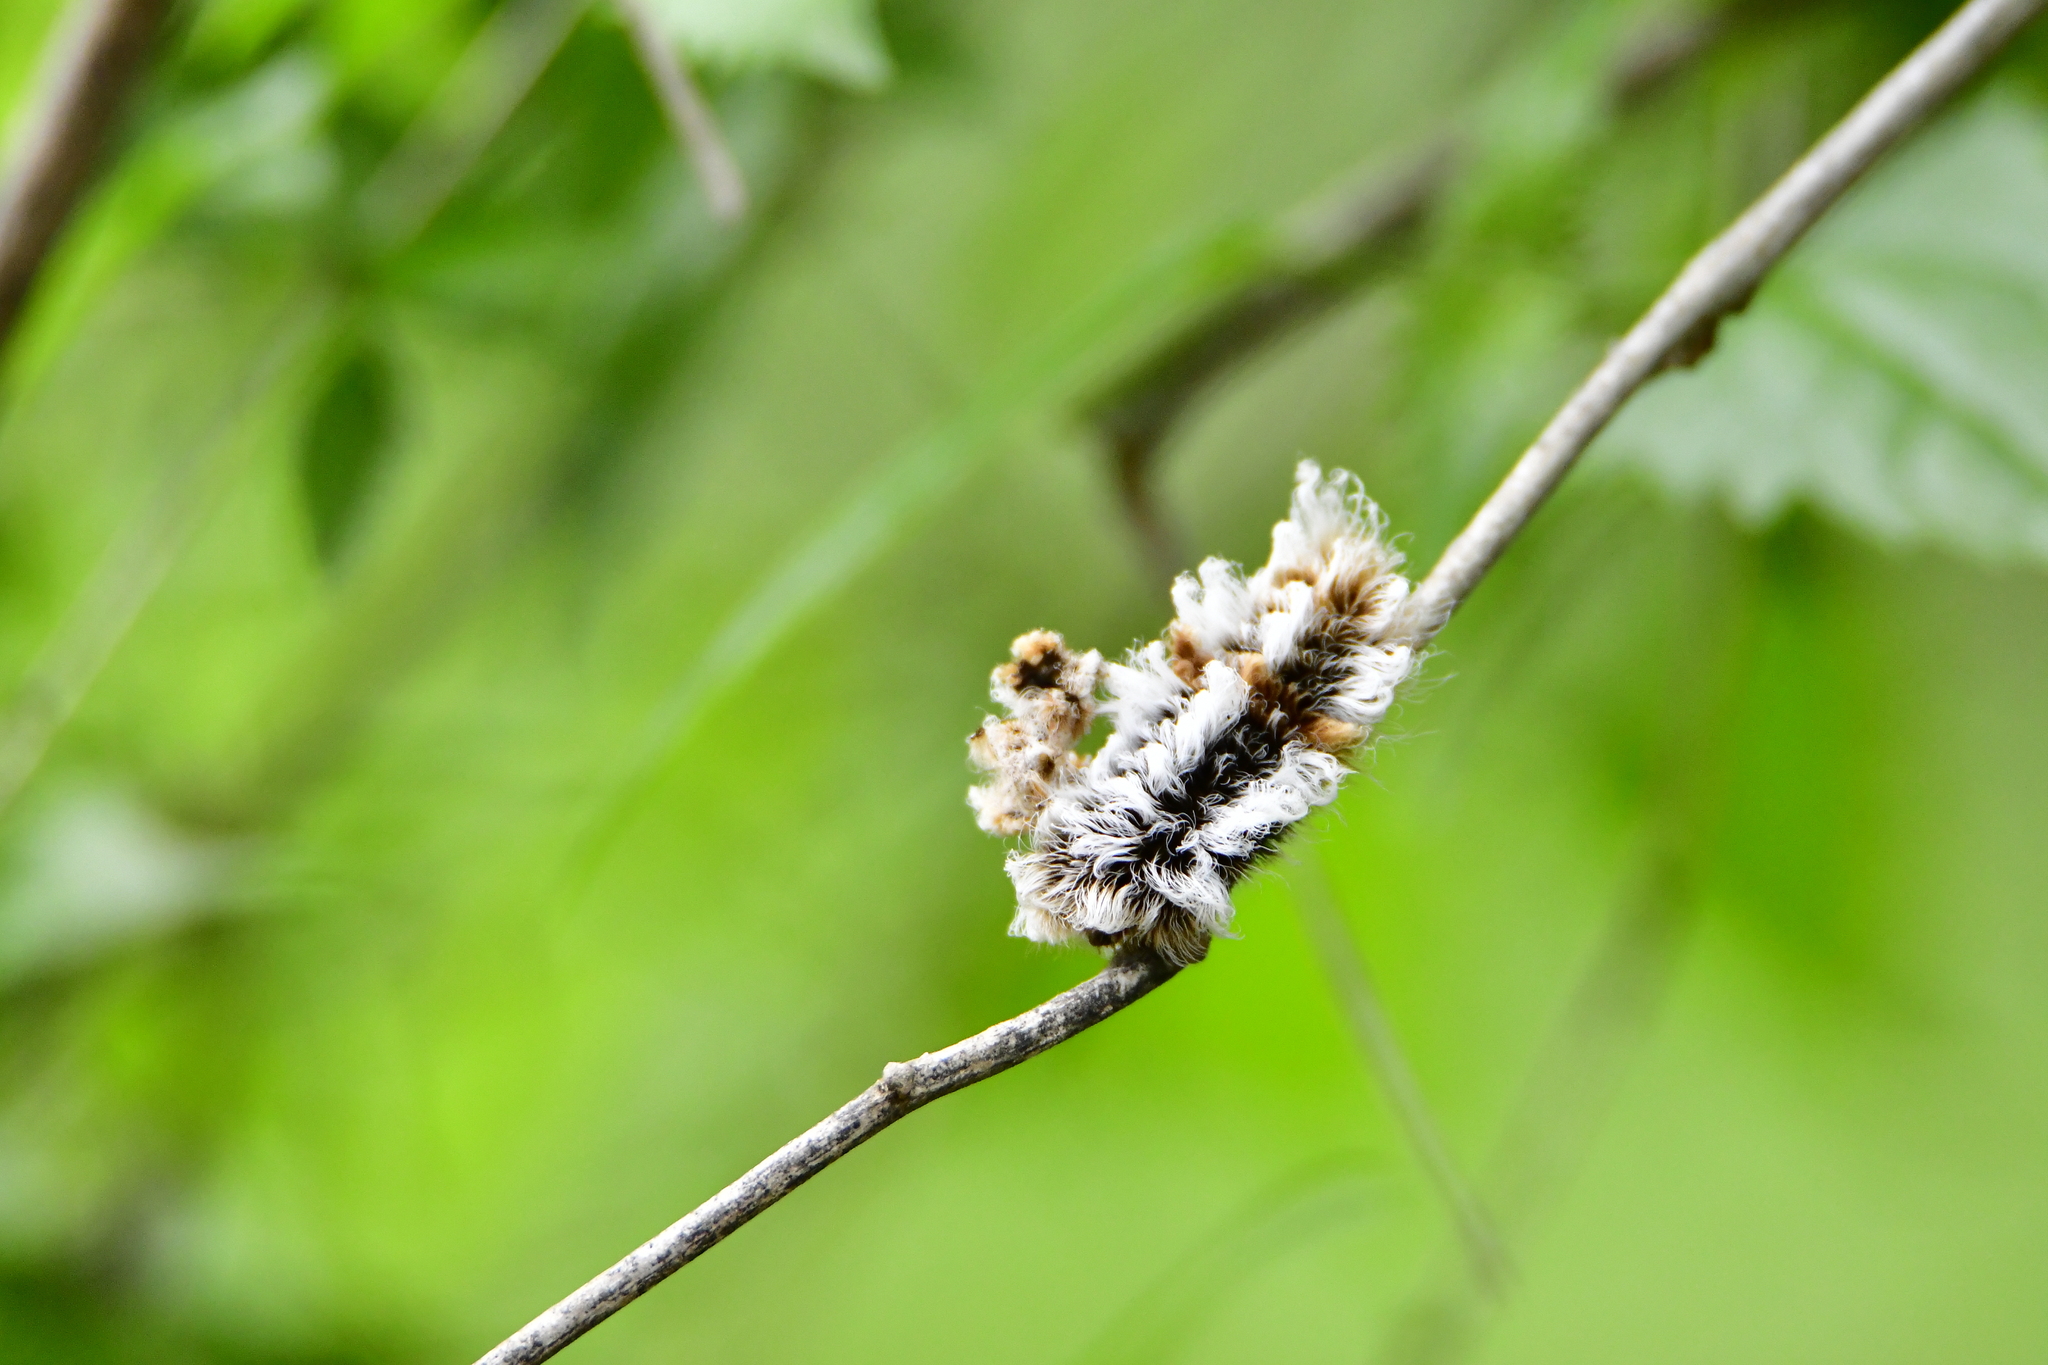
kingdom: Animalia
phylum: Arthropoda
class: Insecta
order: Lepidoptera
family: Megalopygidae
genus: Megalopyge
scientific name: Megalopyge defoliata
